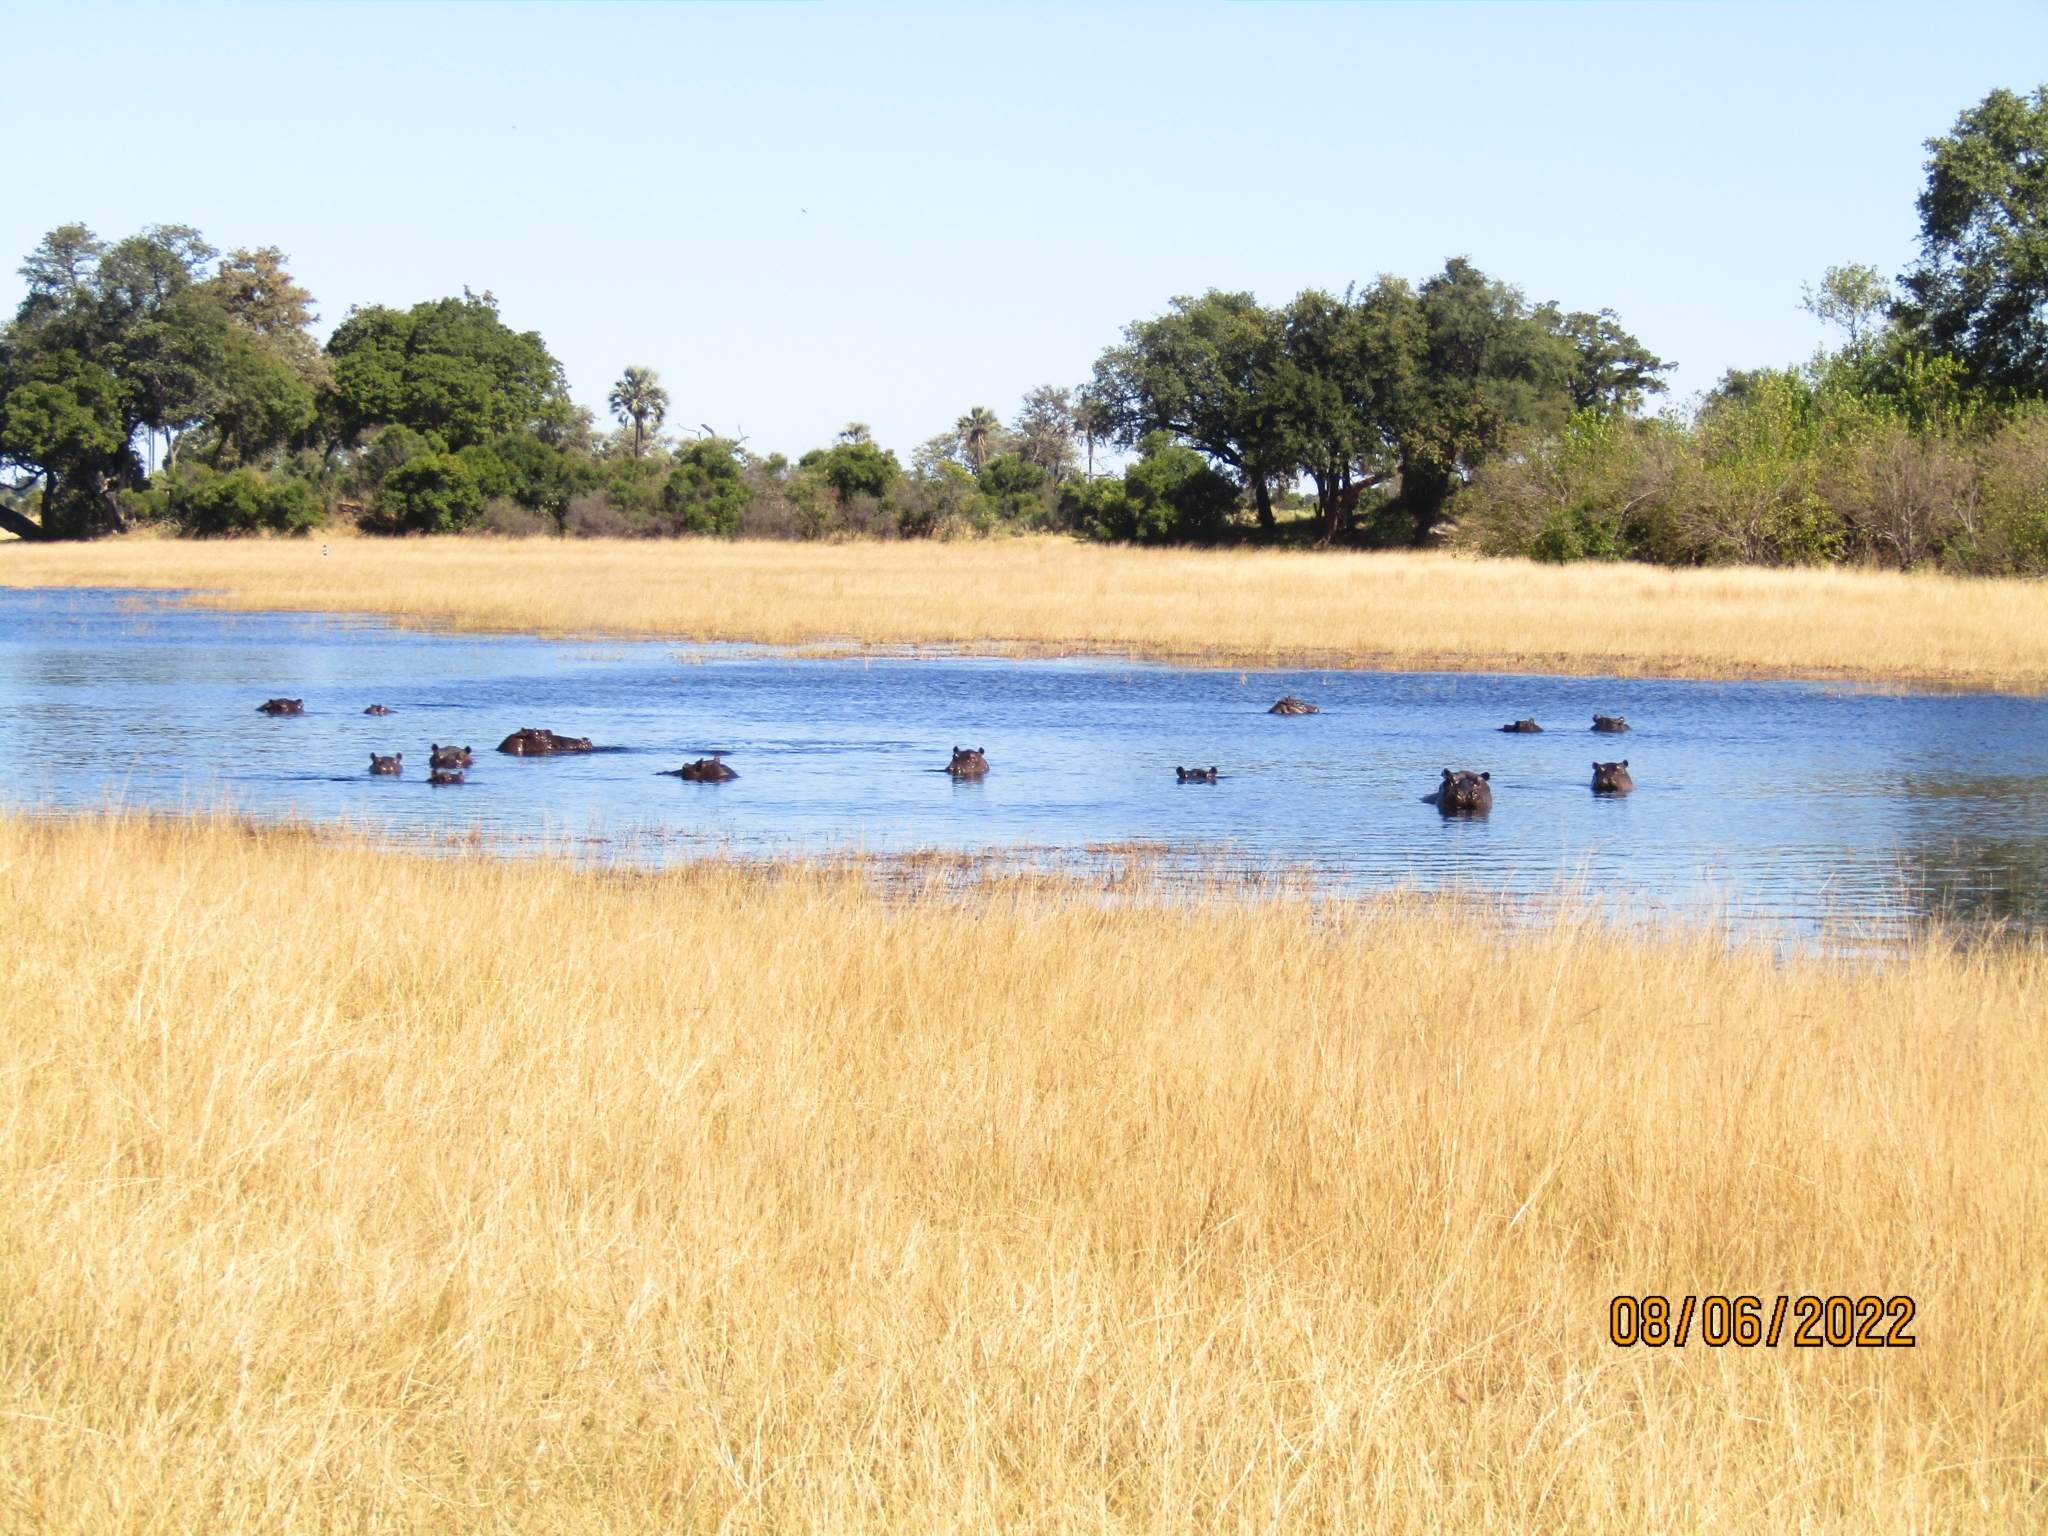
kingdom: Animalia
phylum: Chordata
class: Mammalia
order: Artiodactyla
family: Hippopotamidae
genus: Hippopotamus
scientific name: Hippopotamus amphibius
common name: Common hippopotamus
